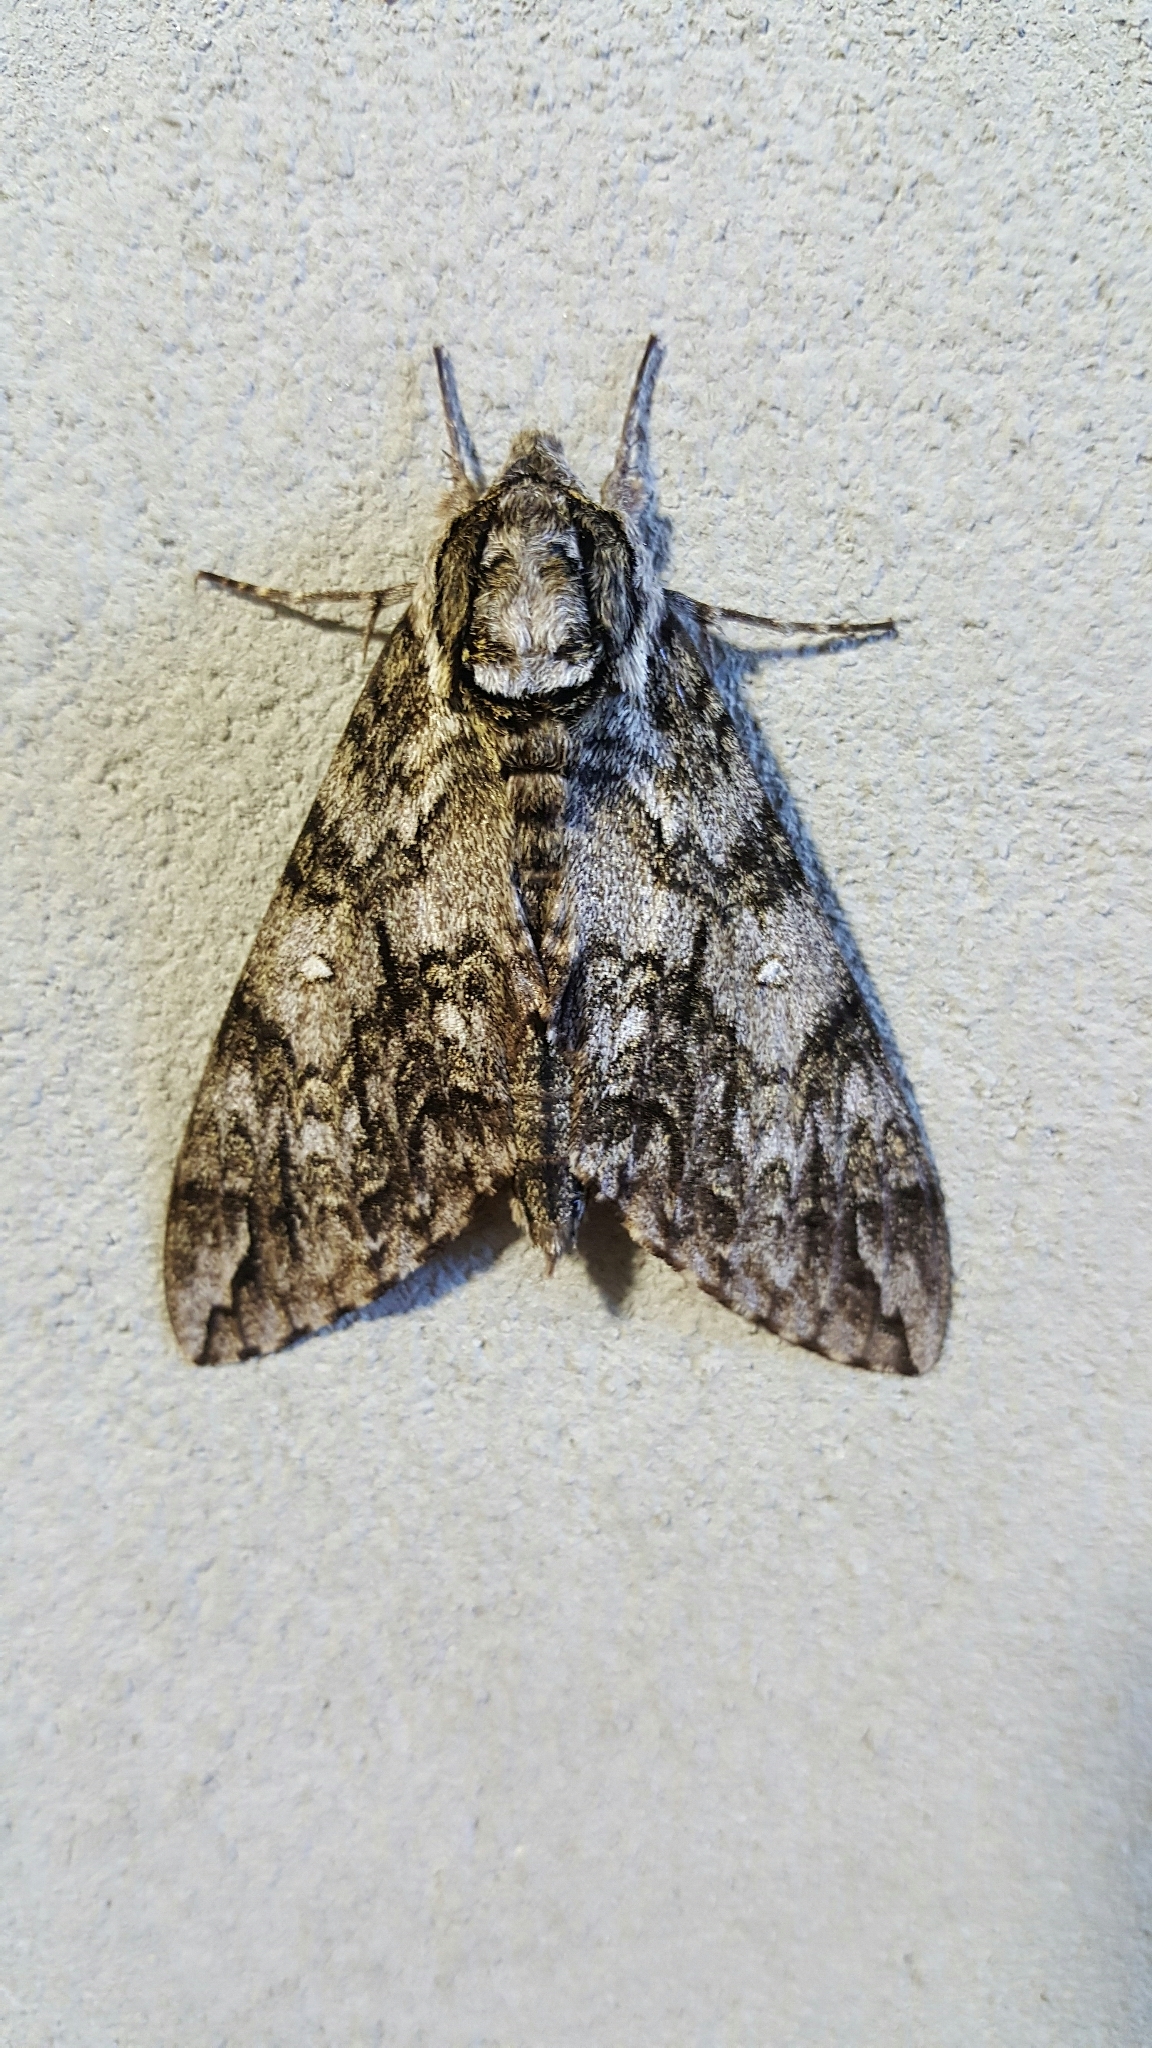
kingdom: Animalia
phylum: Arthropoda
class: Insecta
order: Lepidoptera
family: Sphingidae
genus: Ceratomia
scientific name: Ceratomia undulosa
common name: Waved sphinx
